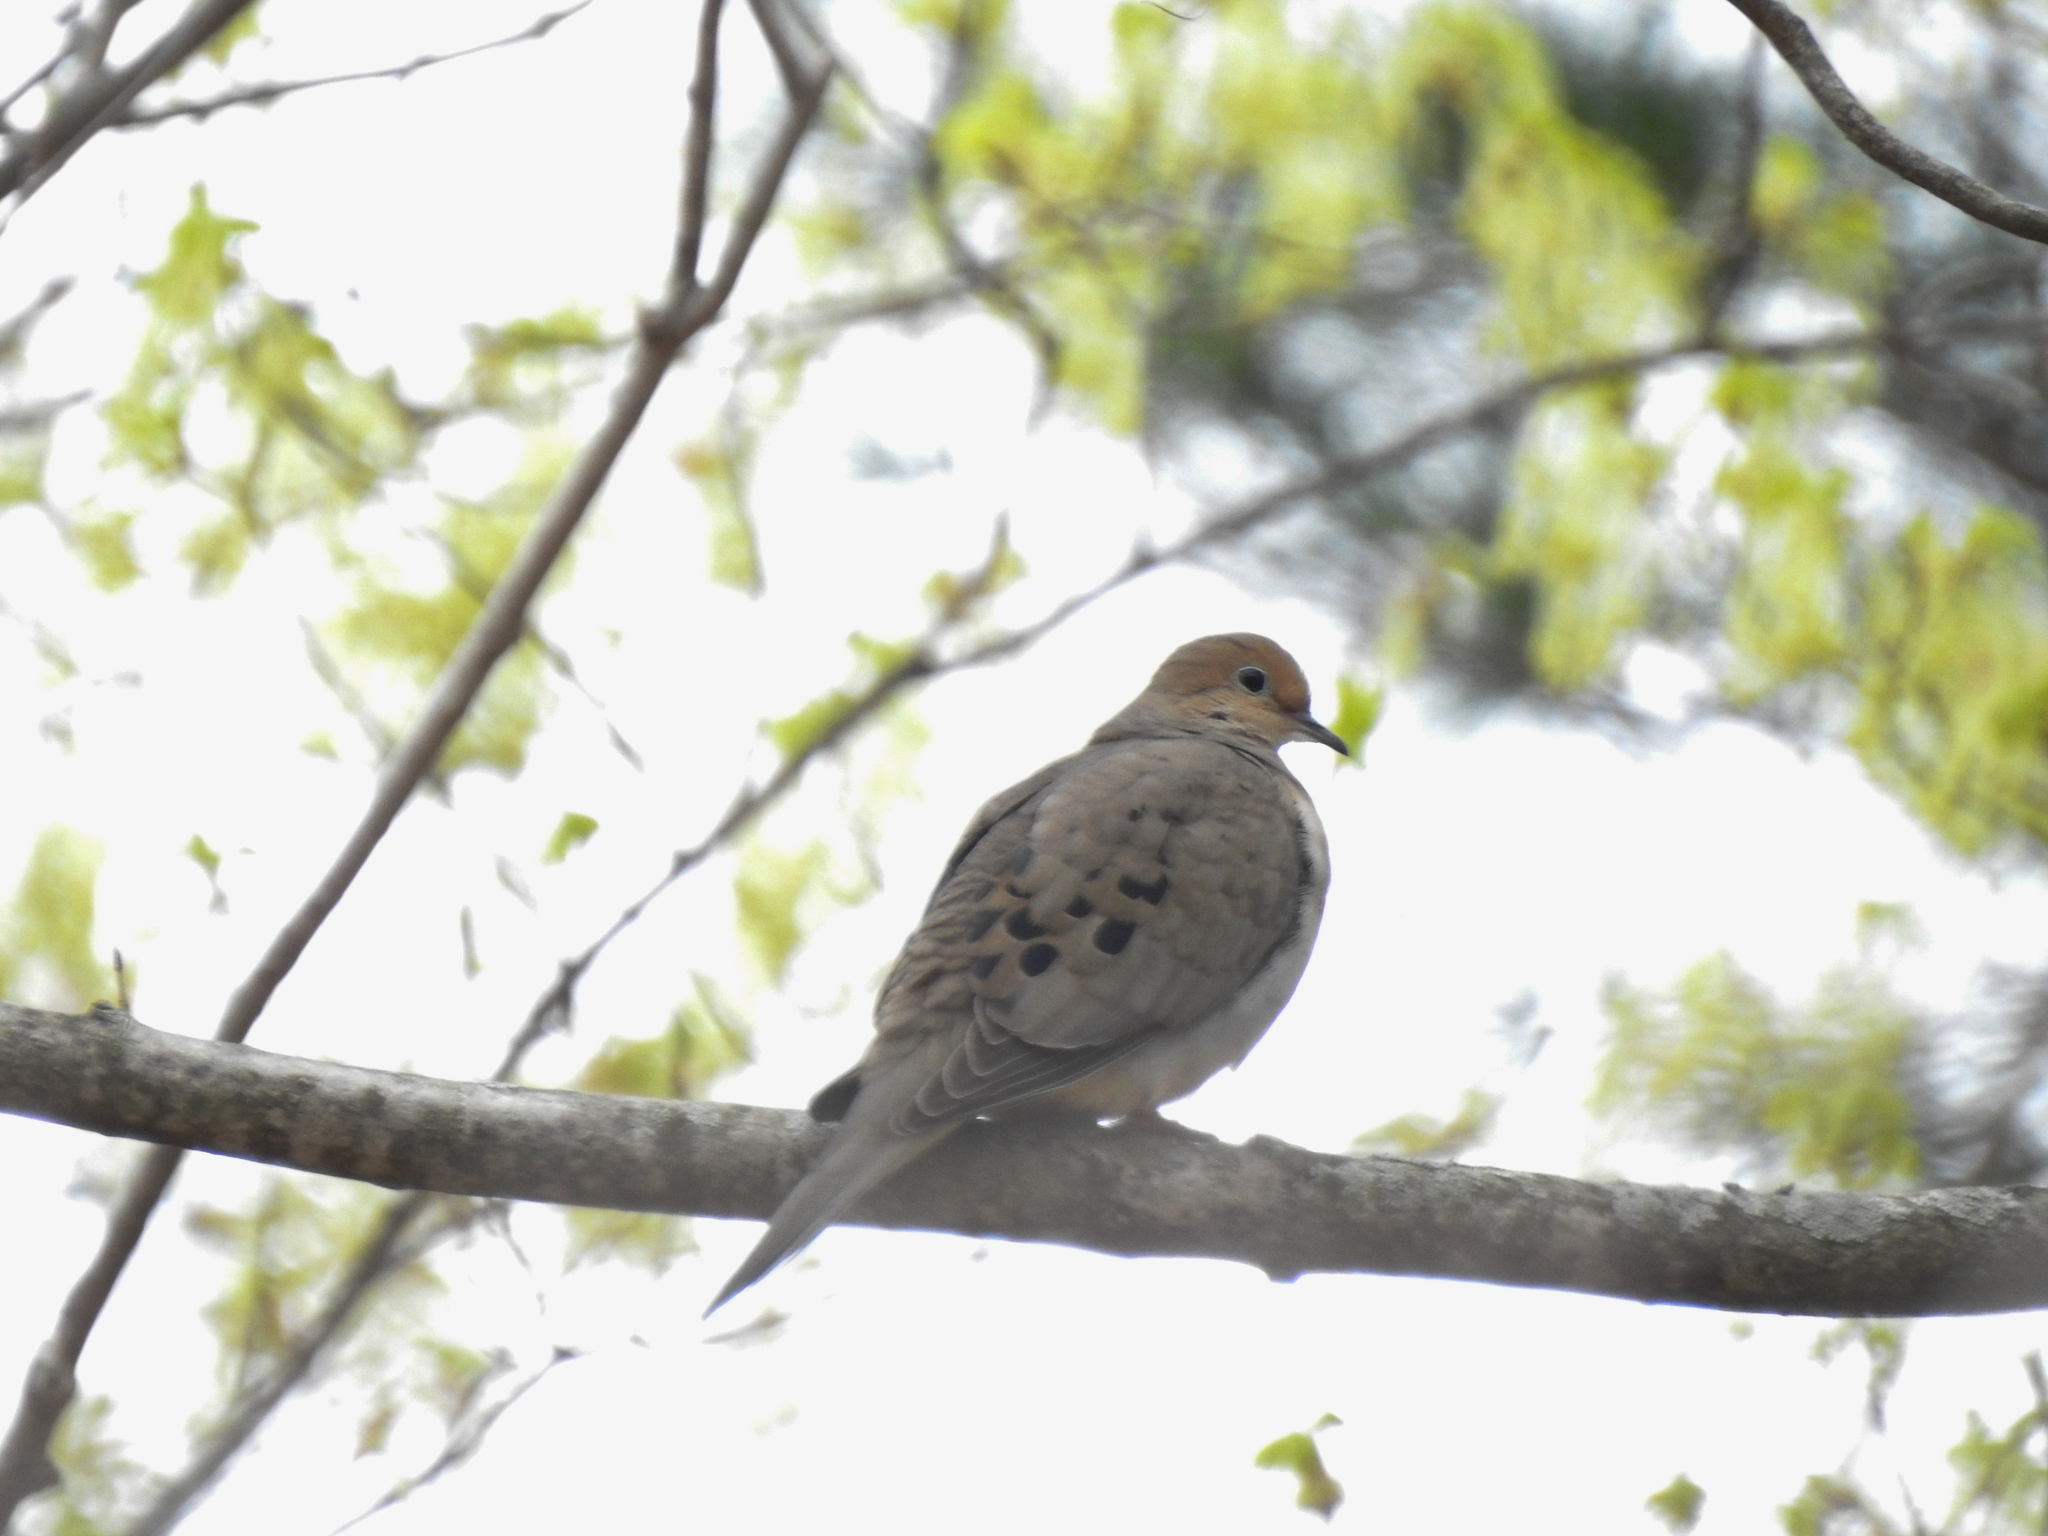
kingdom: Animalia
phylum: Chordata
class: Aves
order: Columbiformes
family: Columbidae
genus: Zenaida
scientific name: Zenaida macroura
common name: Mourning dove
